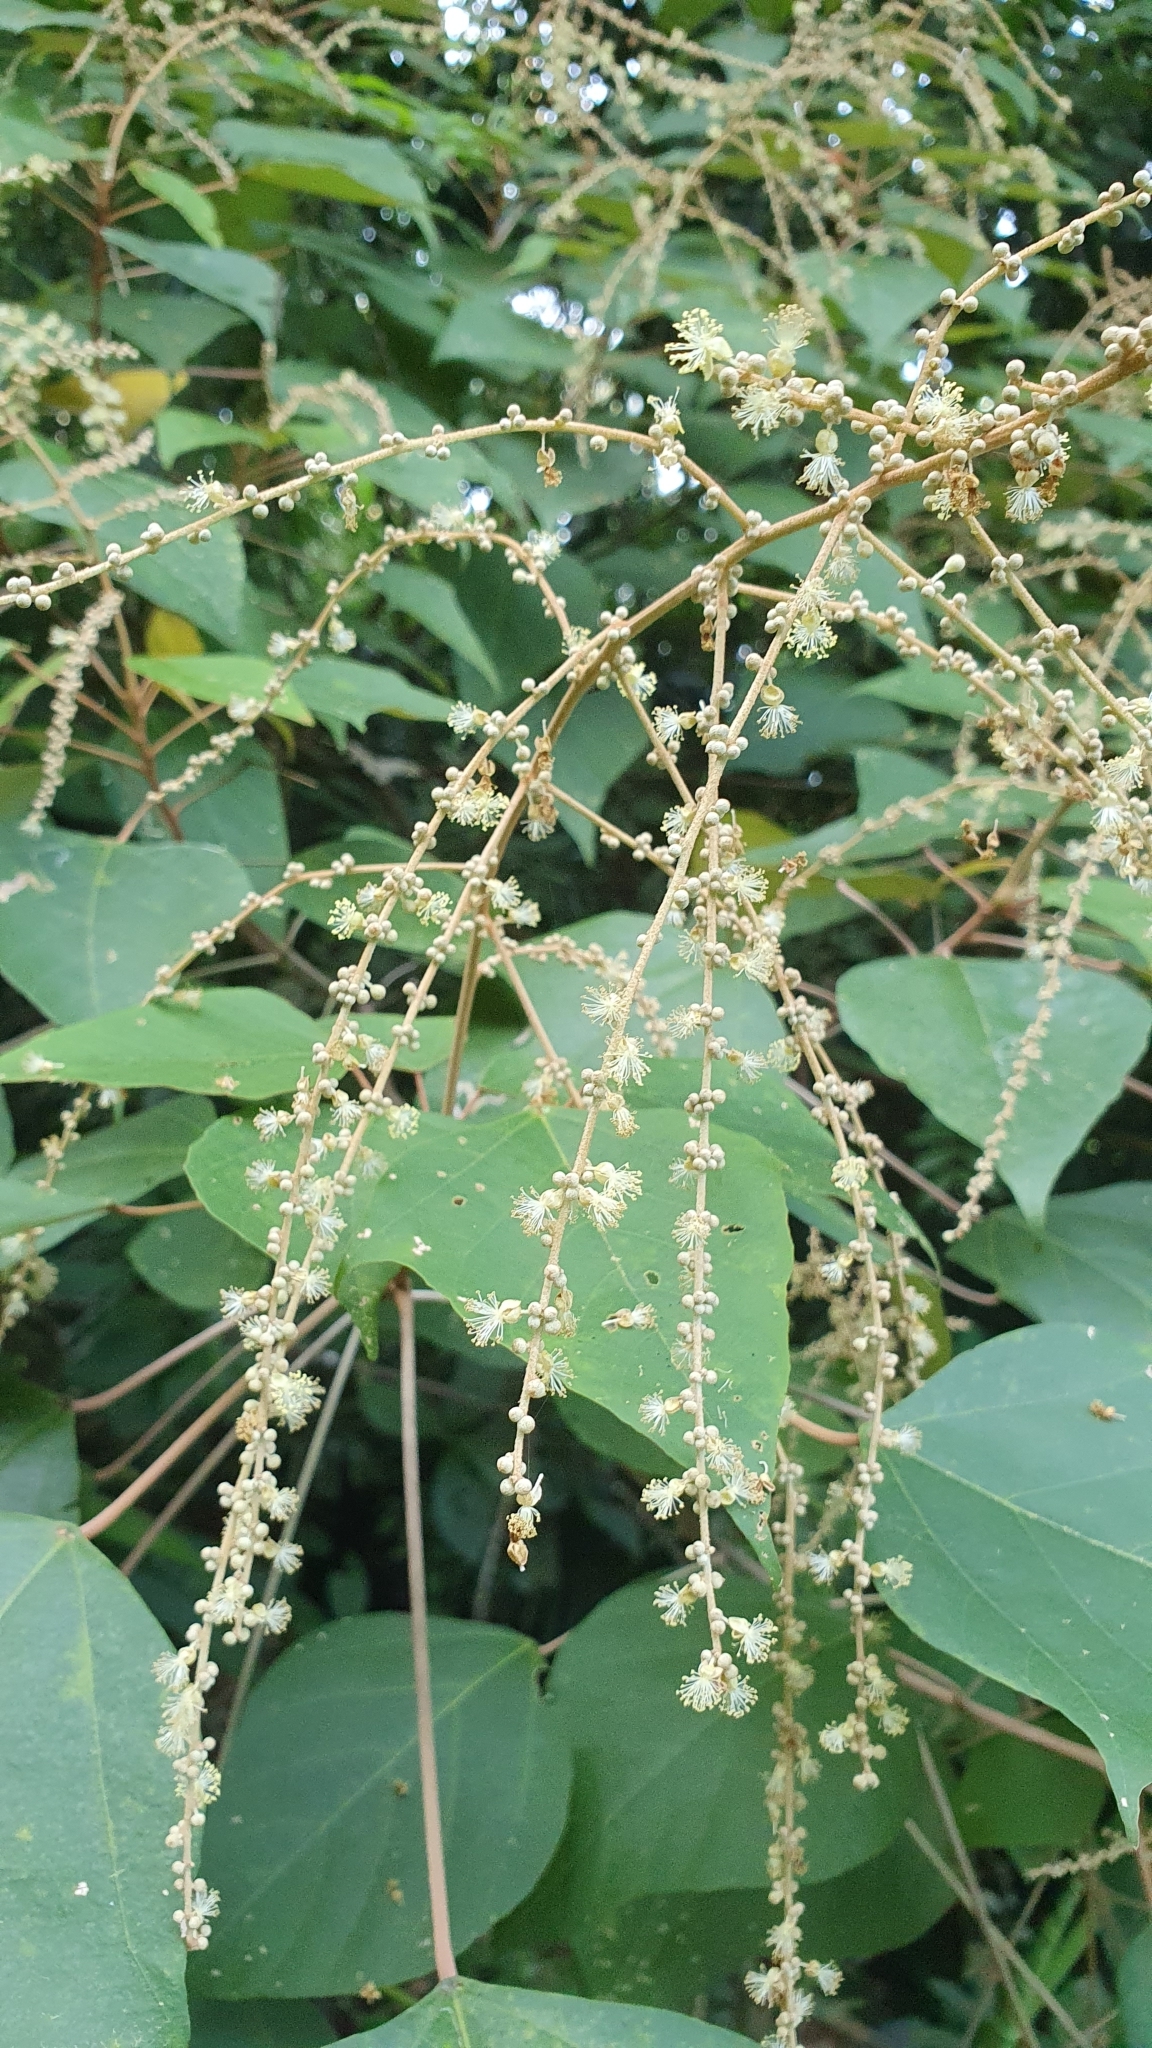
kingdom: Plantae
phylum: Tracheophyta
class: Magnoliopsida
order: Malpighiales
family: Euphorbiaceae
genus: Mallotus
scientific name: Mallotus paniculatus
